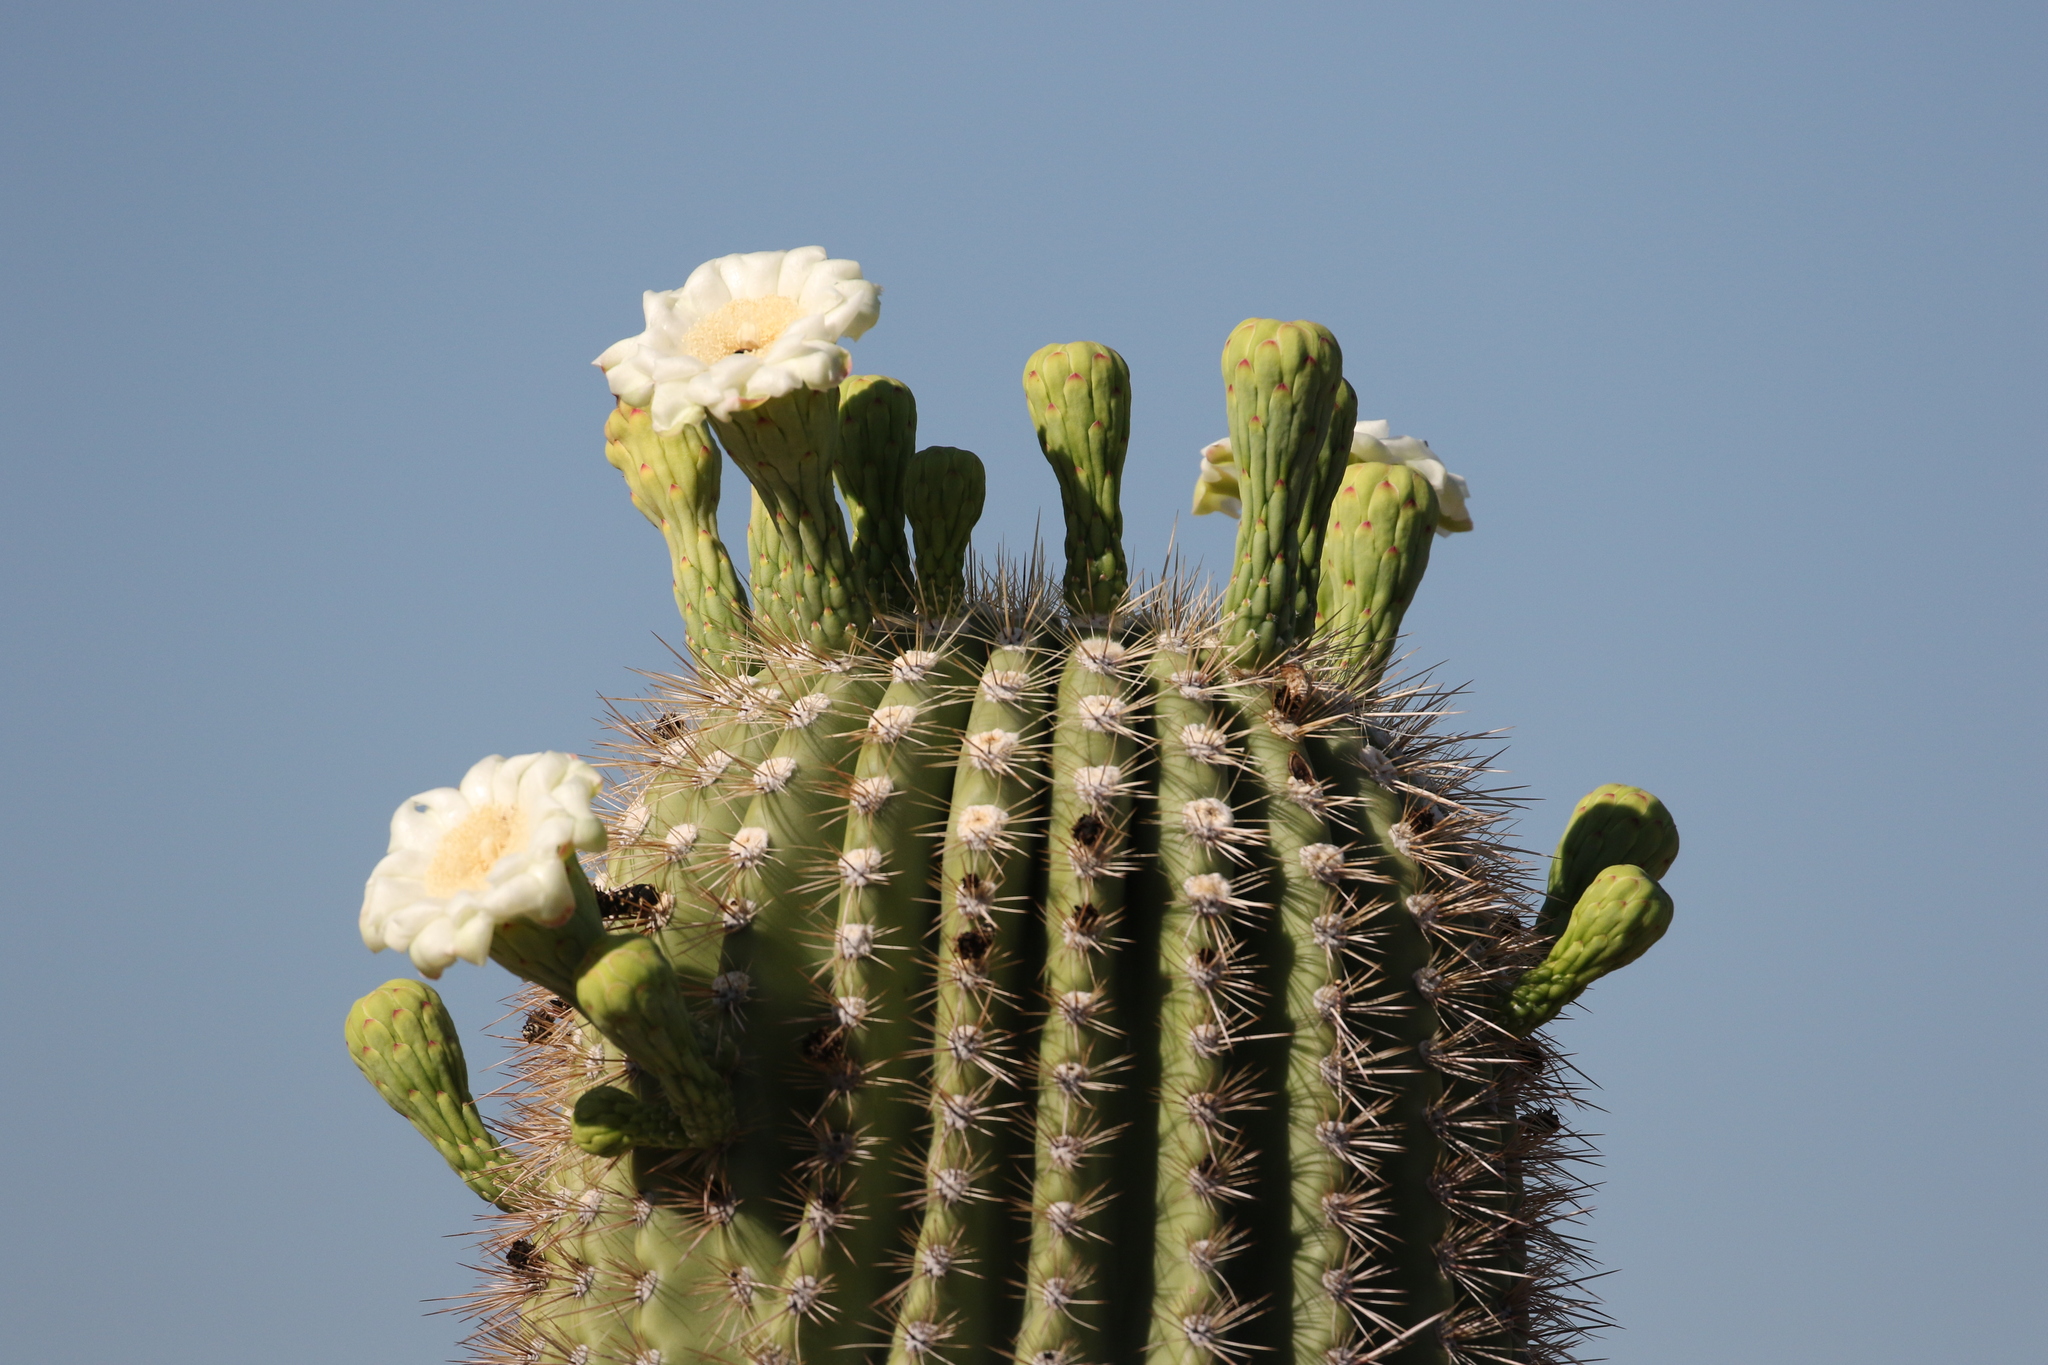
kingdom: Plantae
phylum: Tracheophyta
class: Magnoliopsida
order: Caryophyllales
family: Cactaceae
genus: Carnegiea
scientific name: Carnegiea gigantea
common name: Saguaro
